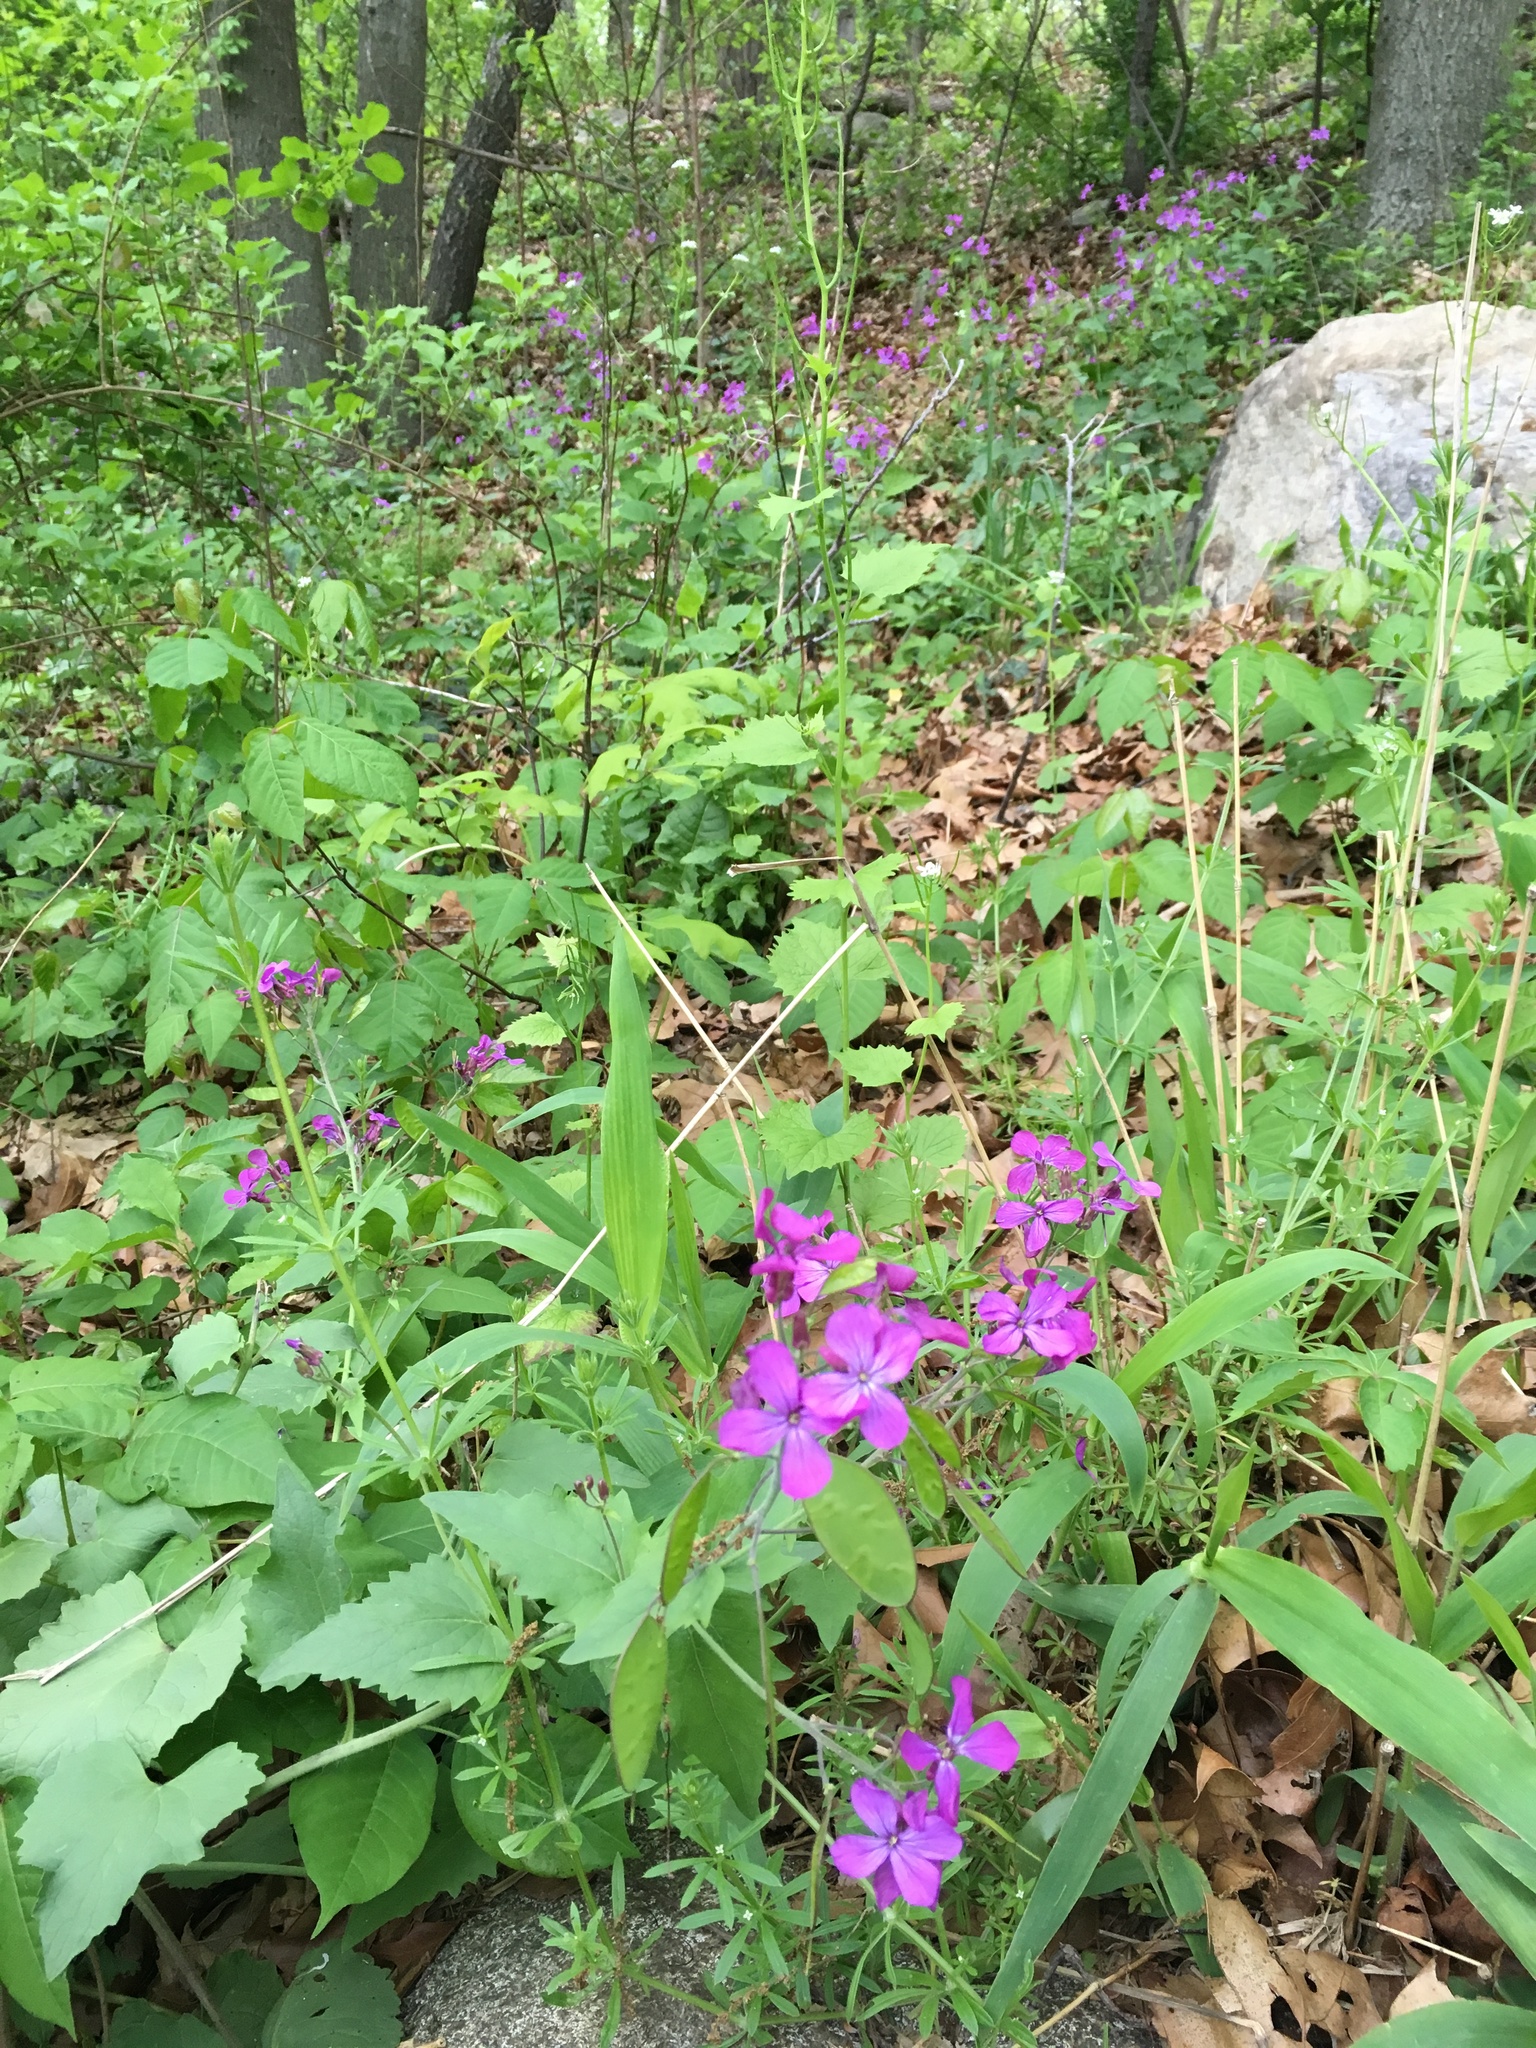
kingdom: Plantae
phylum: Tracheophyta
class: Magnoliopsida
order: Brassicales
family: Brassicaceae
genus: Lunaria
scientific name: Lunaria annua
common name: Honesty
